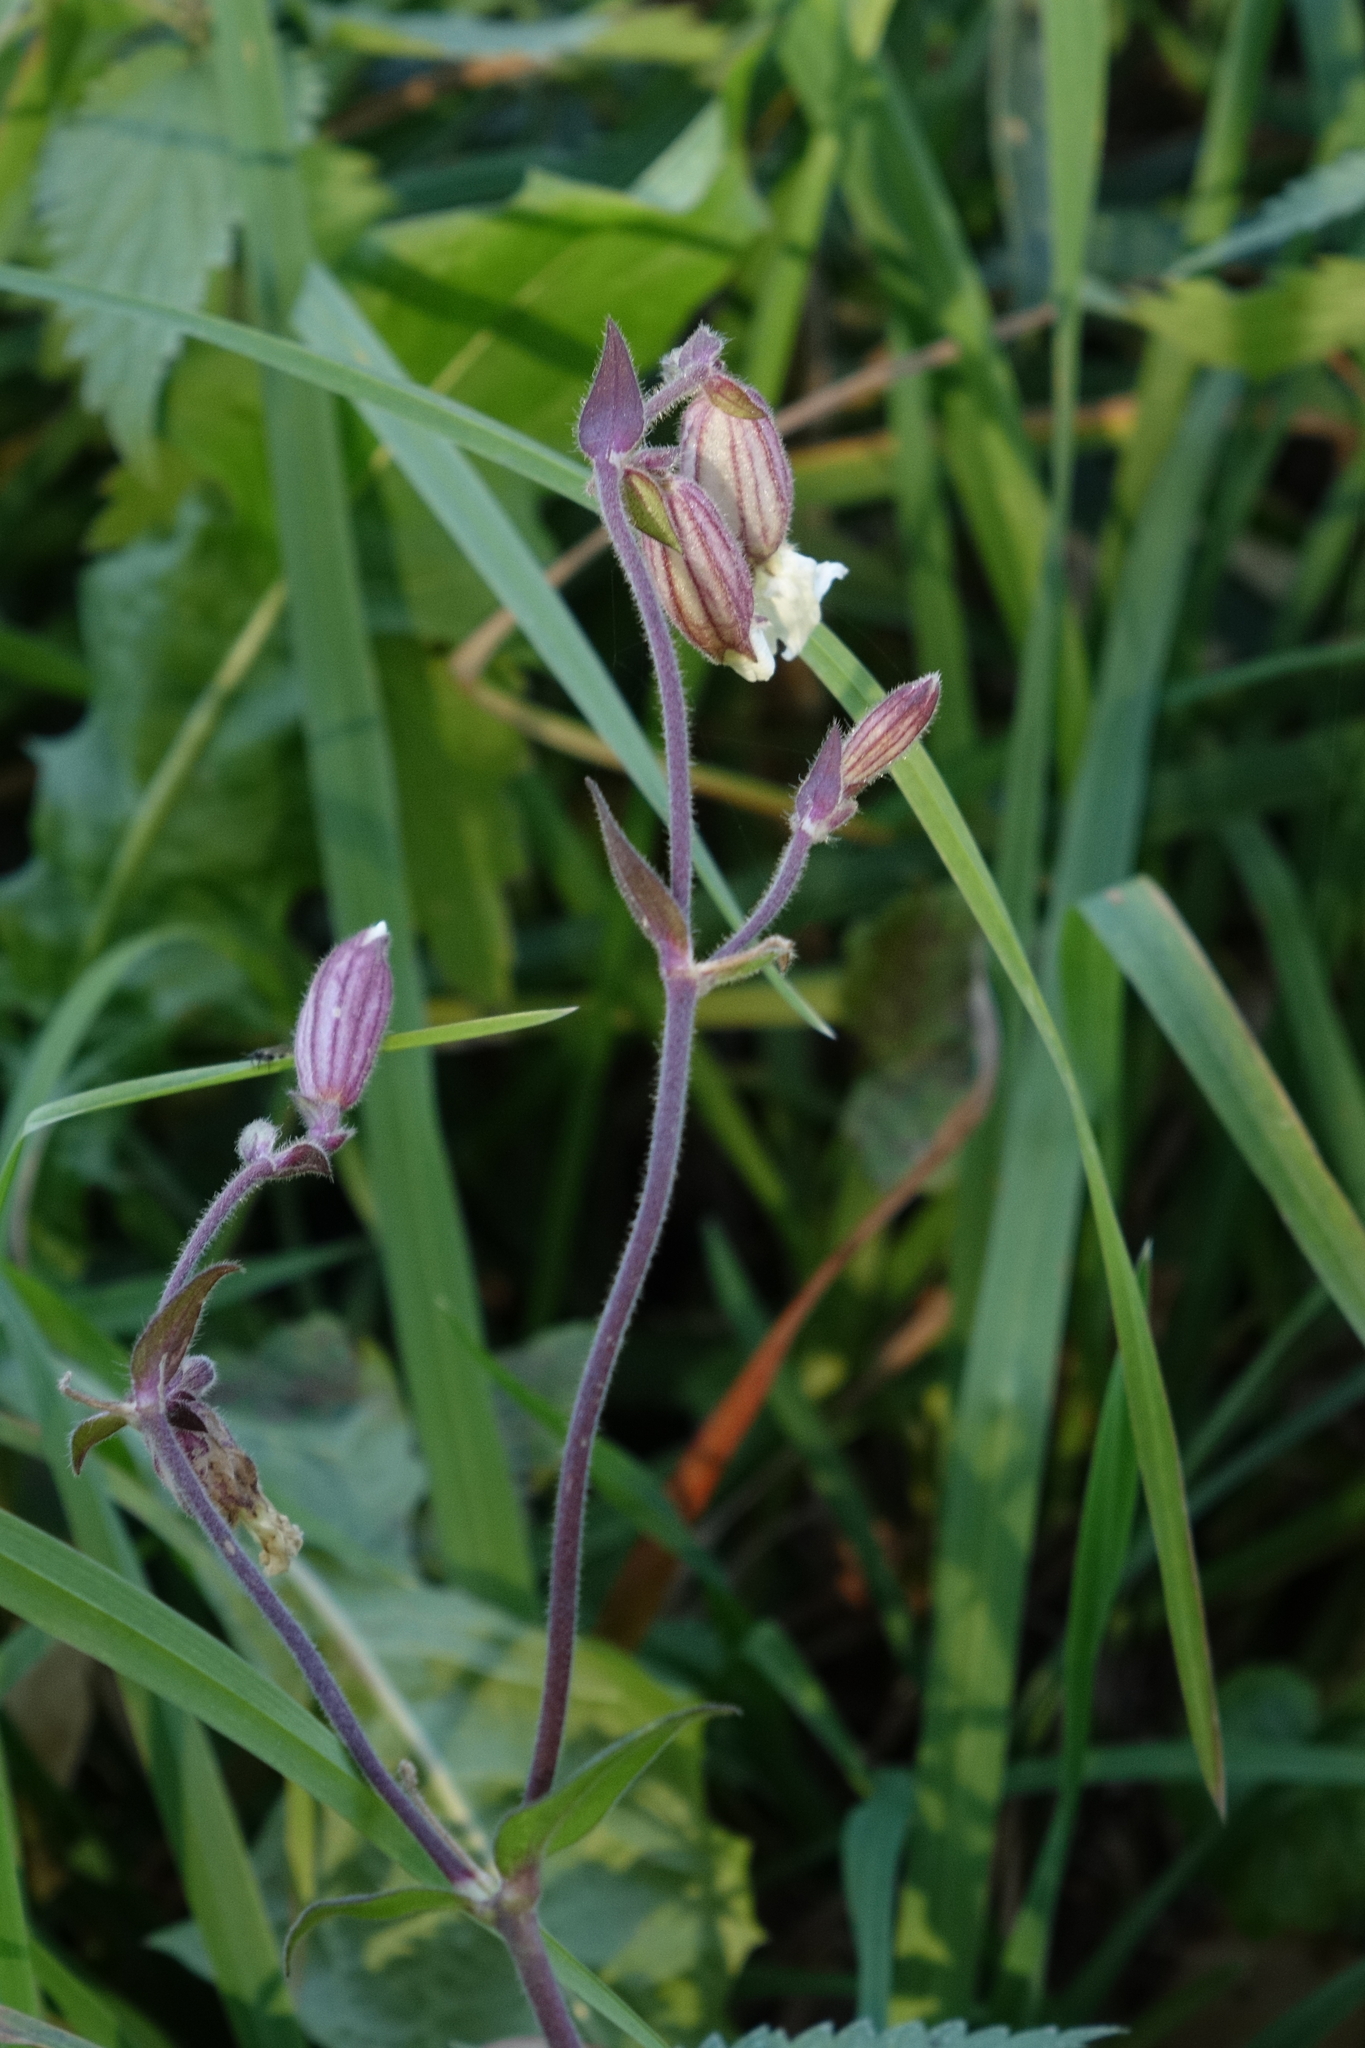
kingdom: Plantae
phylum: Tracheophyta
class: Magnoliopsida
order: Caryophyllales
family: Caryophyllaceae
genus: Silene
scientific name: Silene latifolia
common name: White campion
